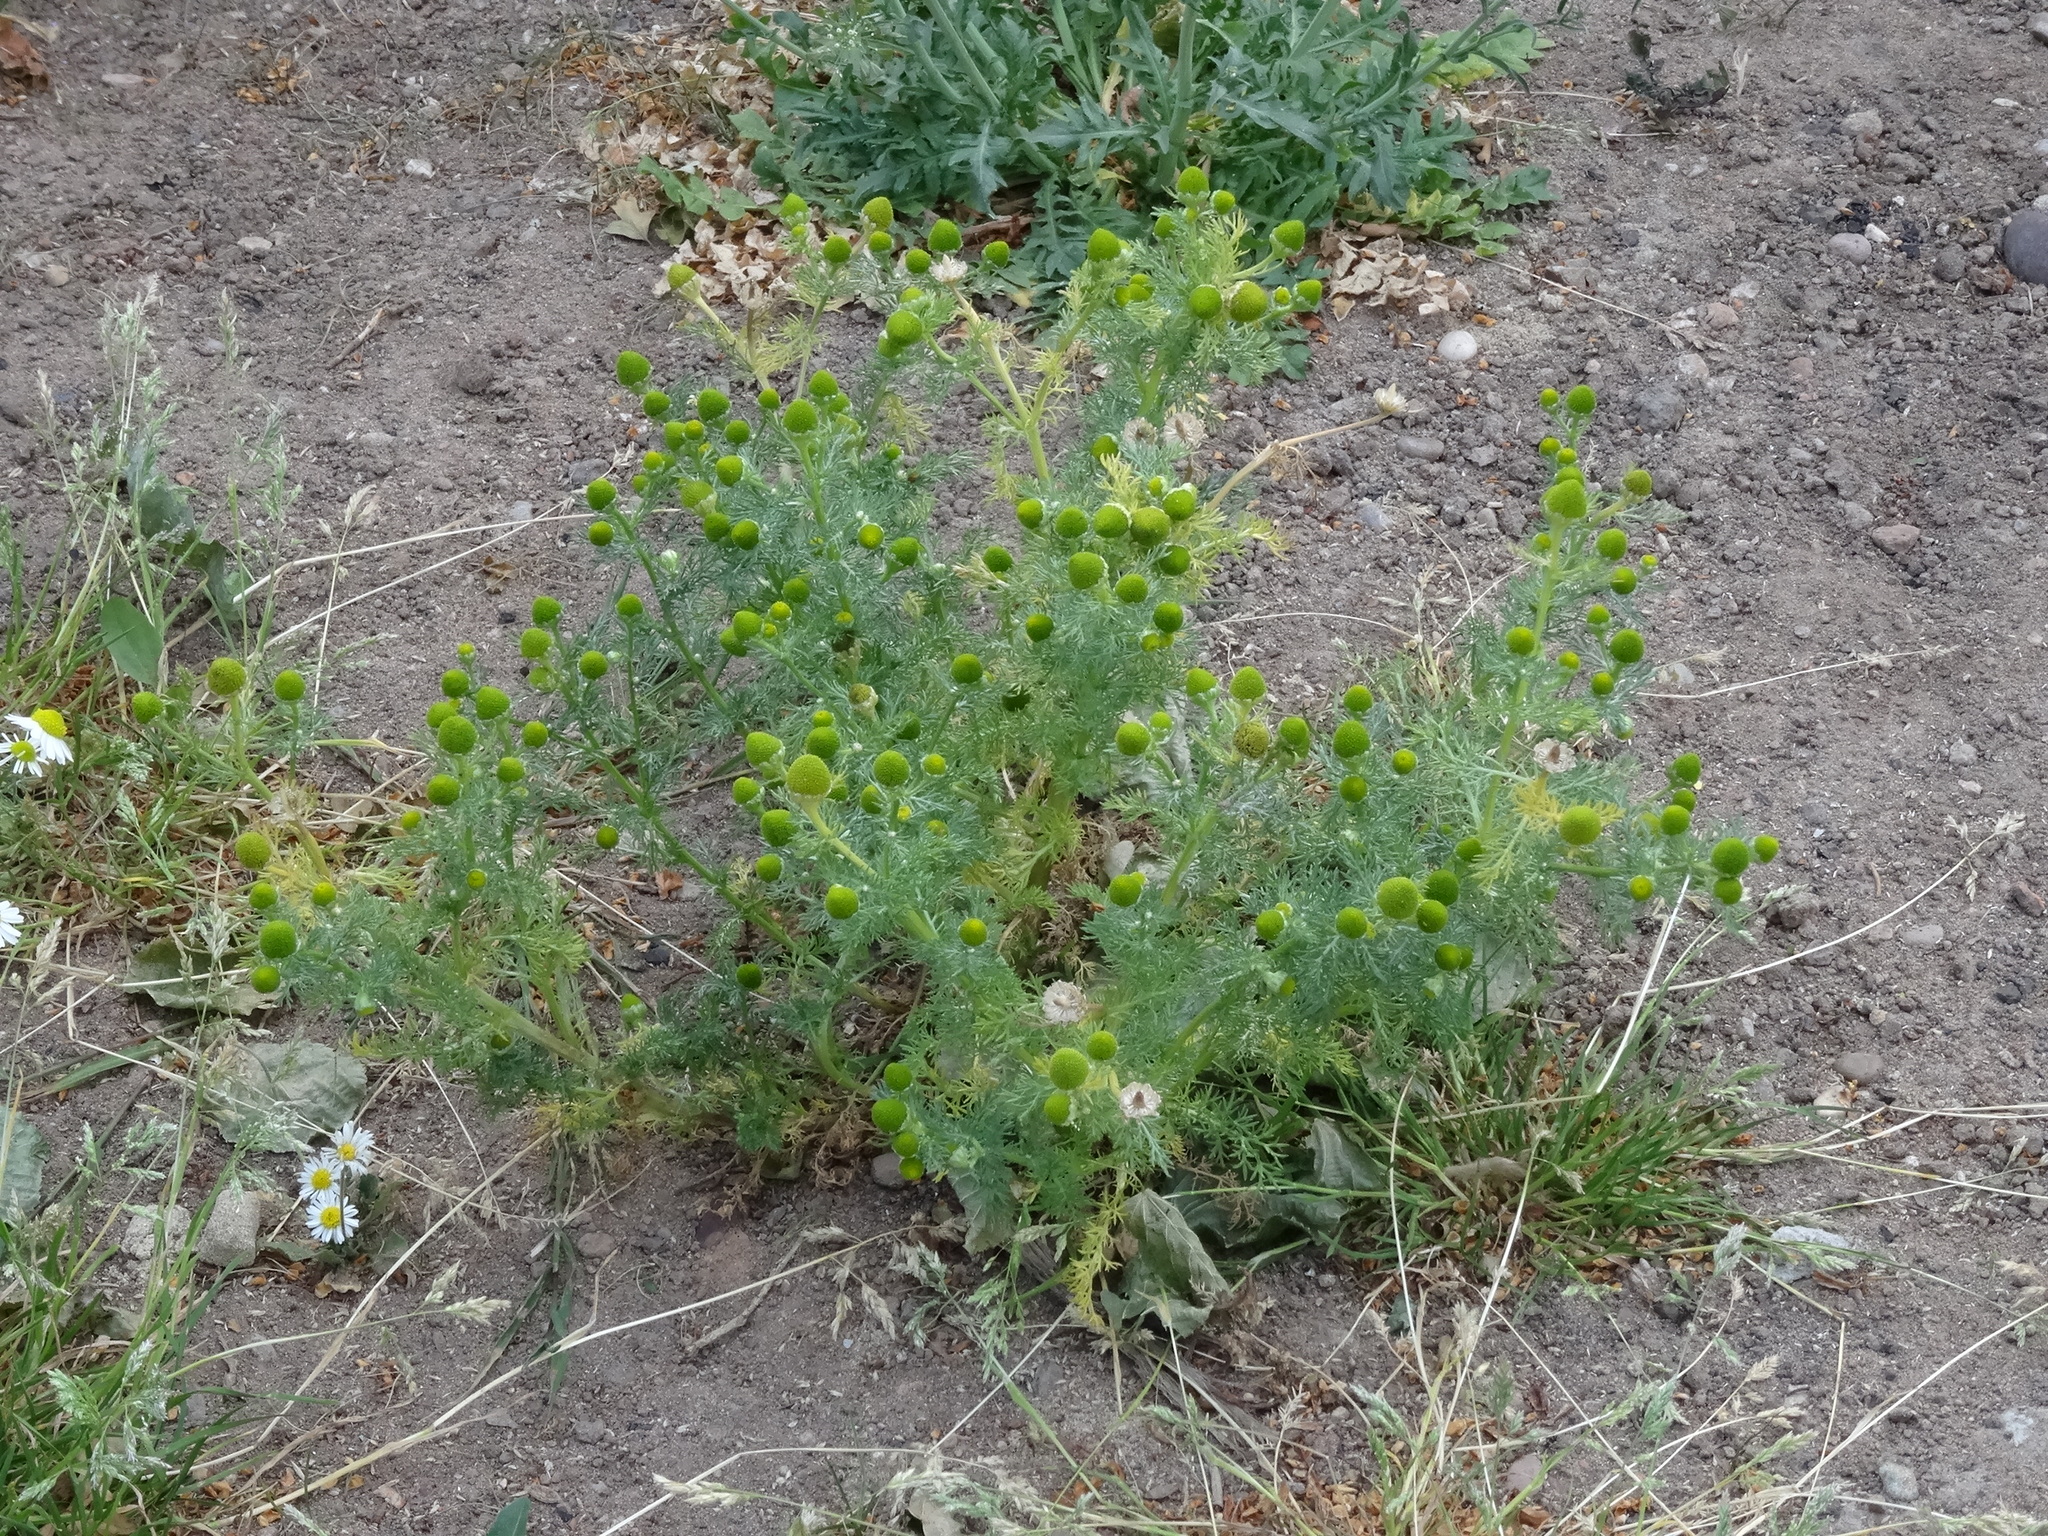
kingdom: Plantae
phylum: Tracheophyta
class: Magnoliopsida
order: Asterales
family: Asteraceae
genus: Matricaria
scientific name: Matricaria discoidea
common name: Disc mayweed
